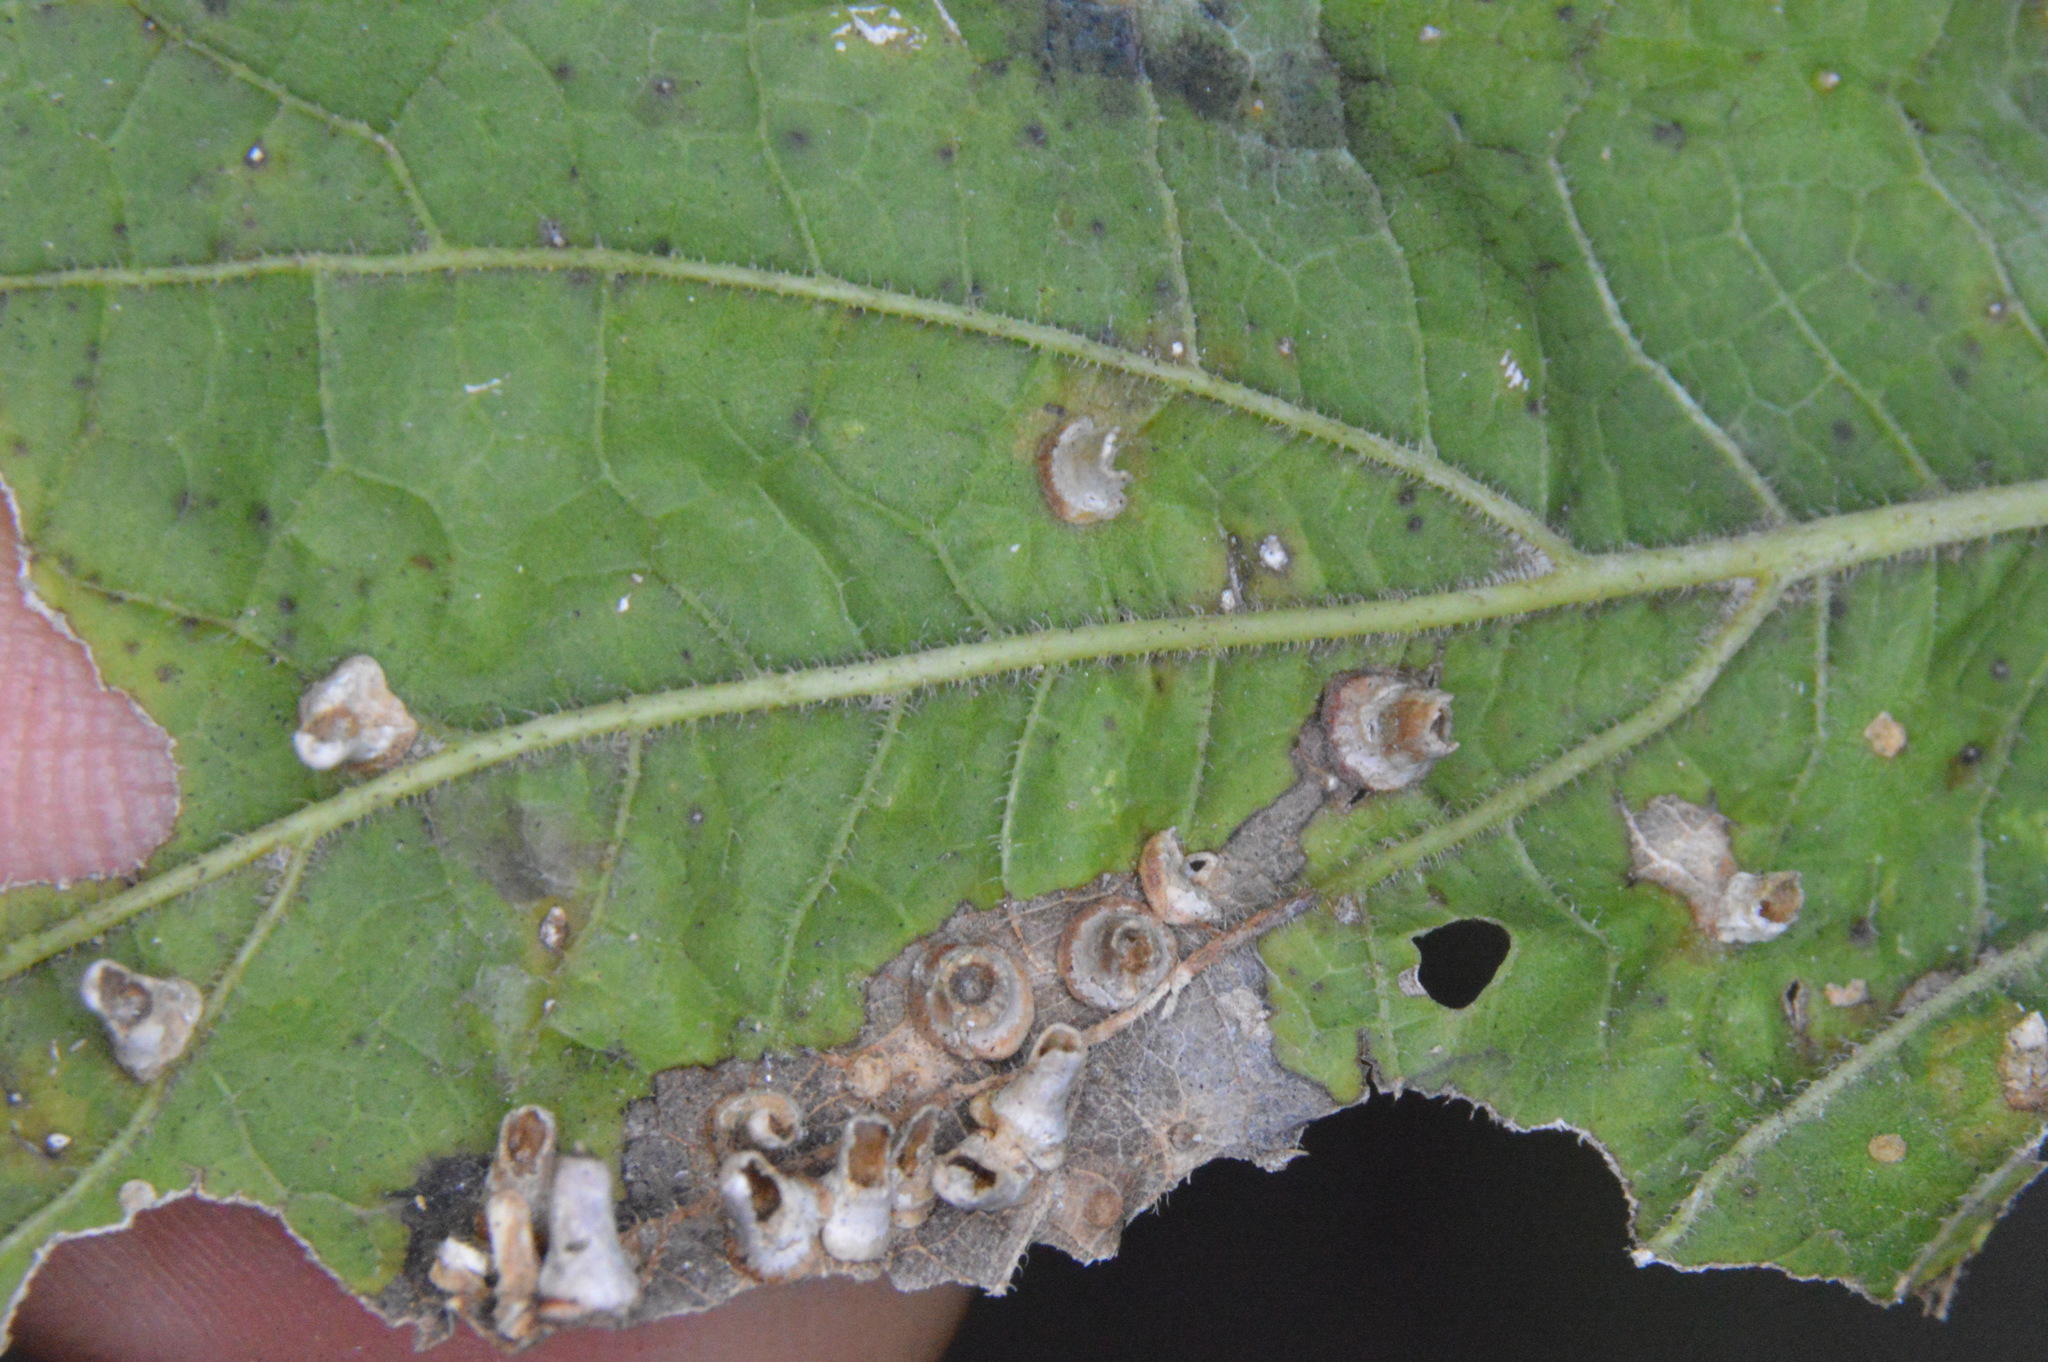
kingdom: Animalia
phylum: Arthropoda
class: Insecta
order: Diptera
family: Cecidomyiidae
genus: Celticecis
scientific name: Celticecis aciculata
